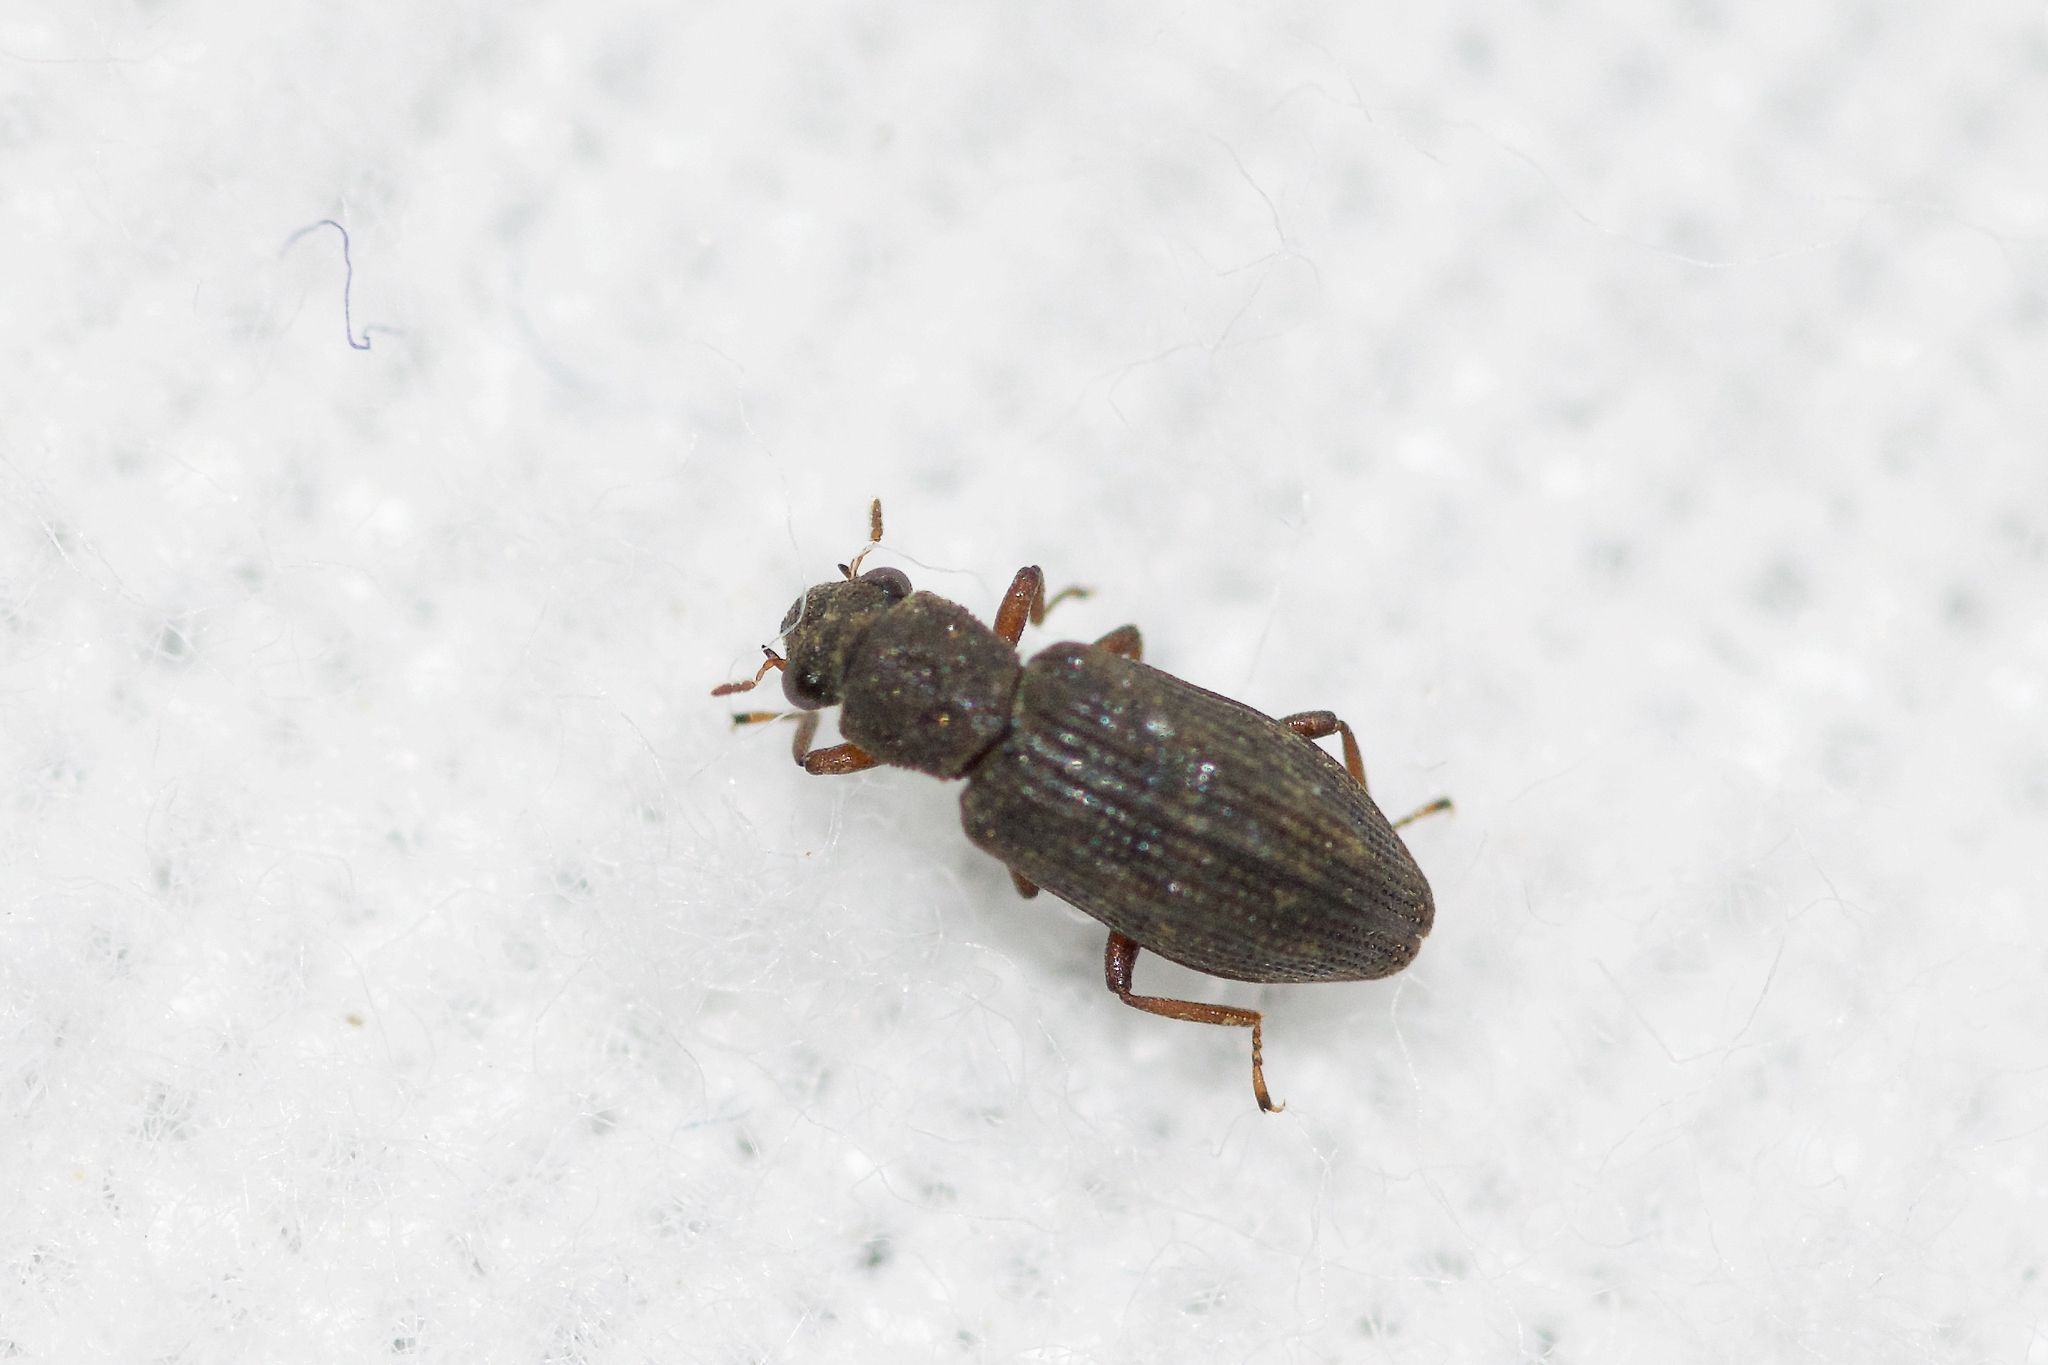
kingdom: Animalia
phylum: Arthropoda
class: Insecta
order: Coleoptera
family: Hydrochidae
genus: Hydrochus
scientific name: Hydrochus
